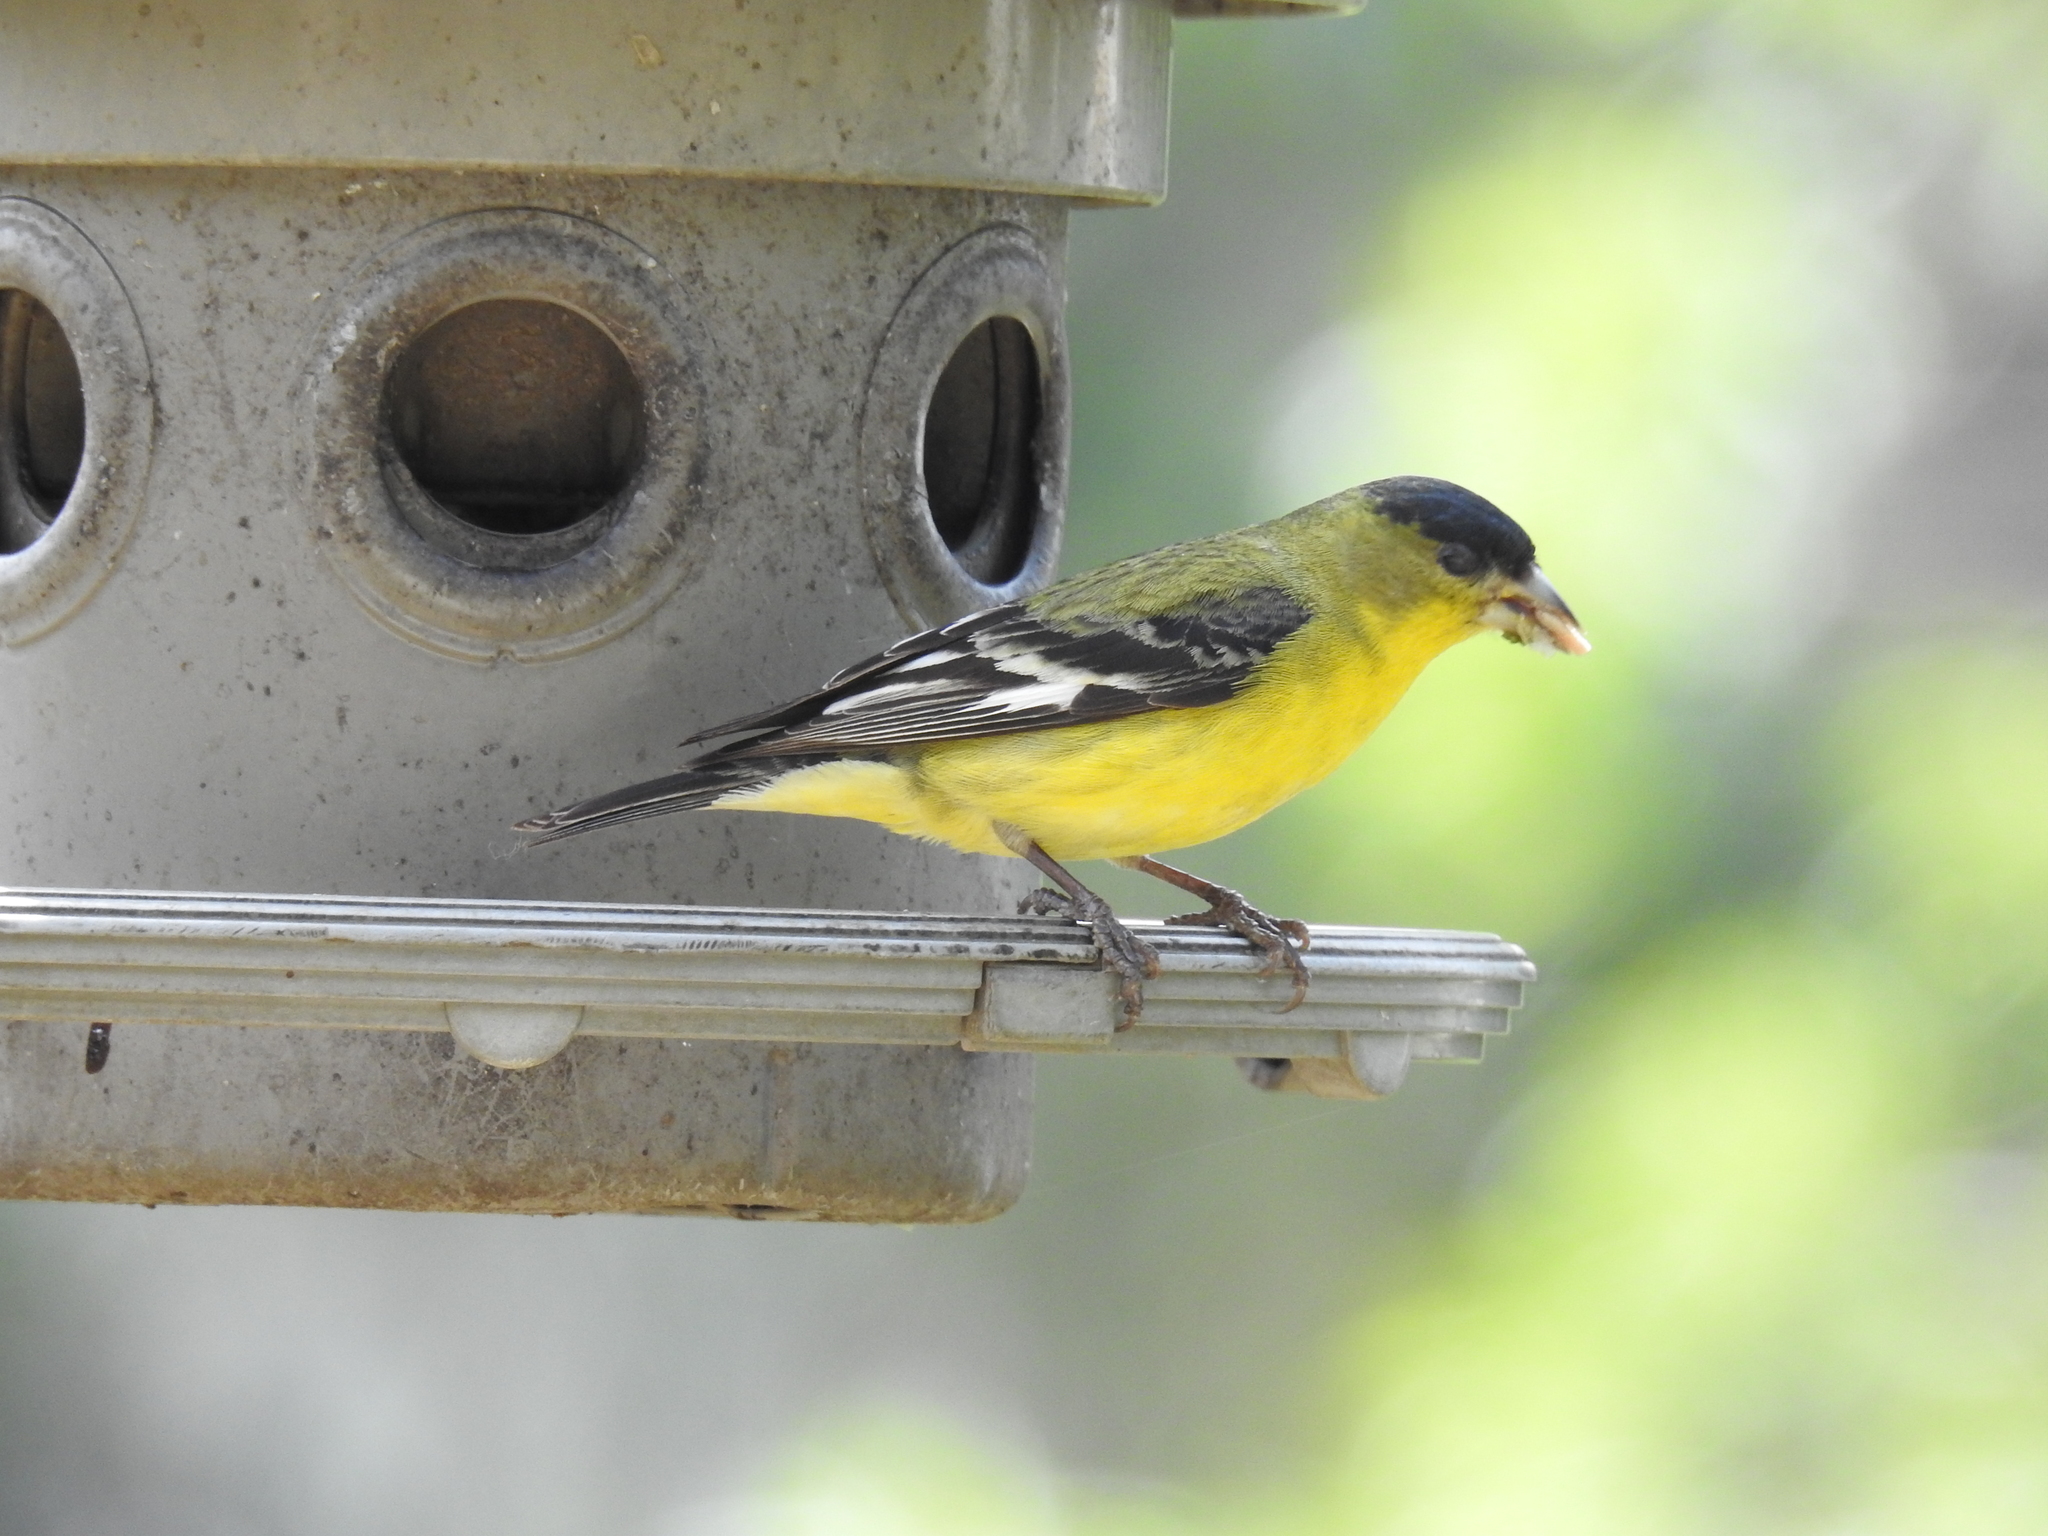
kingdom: Animalia
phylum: Chordata
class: Aves
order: Passeriformes
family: Fringillidae
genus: Spinus
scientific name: Spinus psaltria
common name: Lesser goldfinch
